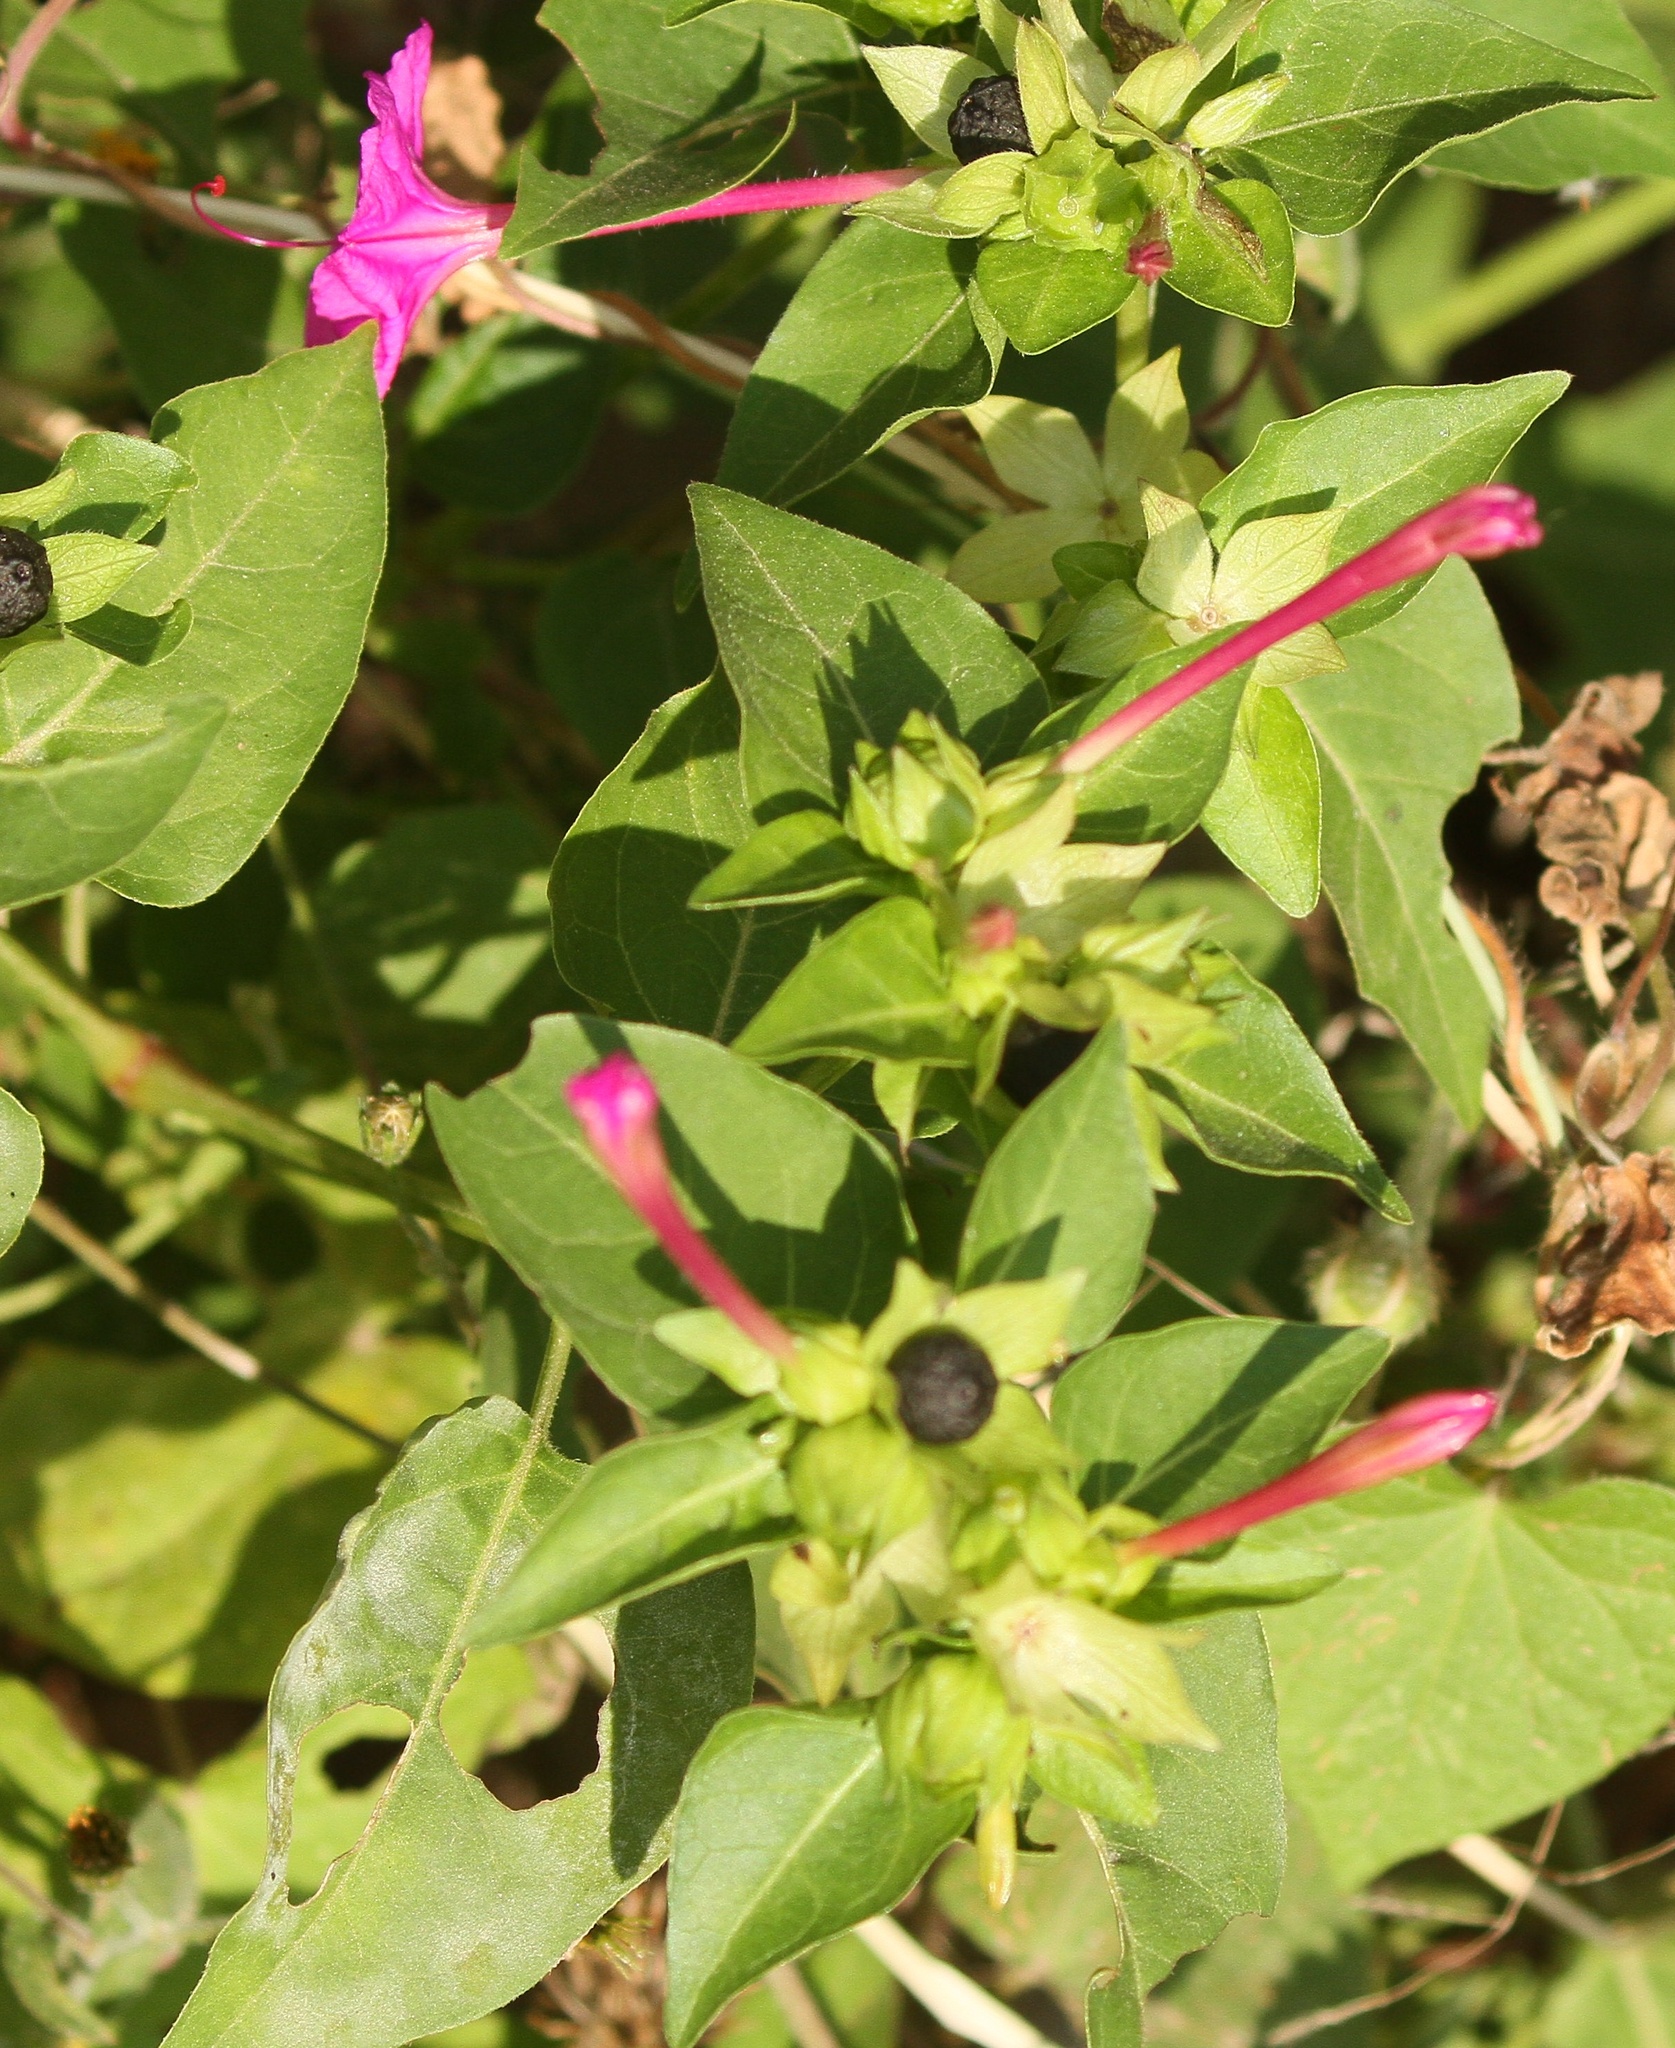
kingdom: Plantae
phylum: Tracheophyta
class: Magnoliopsida
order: Caryophyllales
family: Nyctaginaceae
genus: Mirabilis
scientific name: Mirabilis jalapa
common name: Marvel-of-peru
